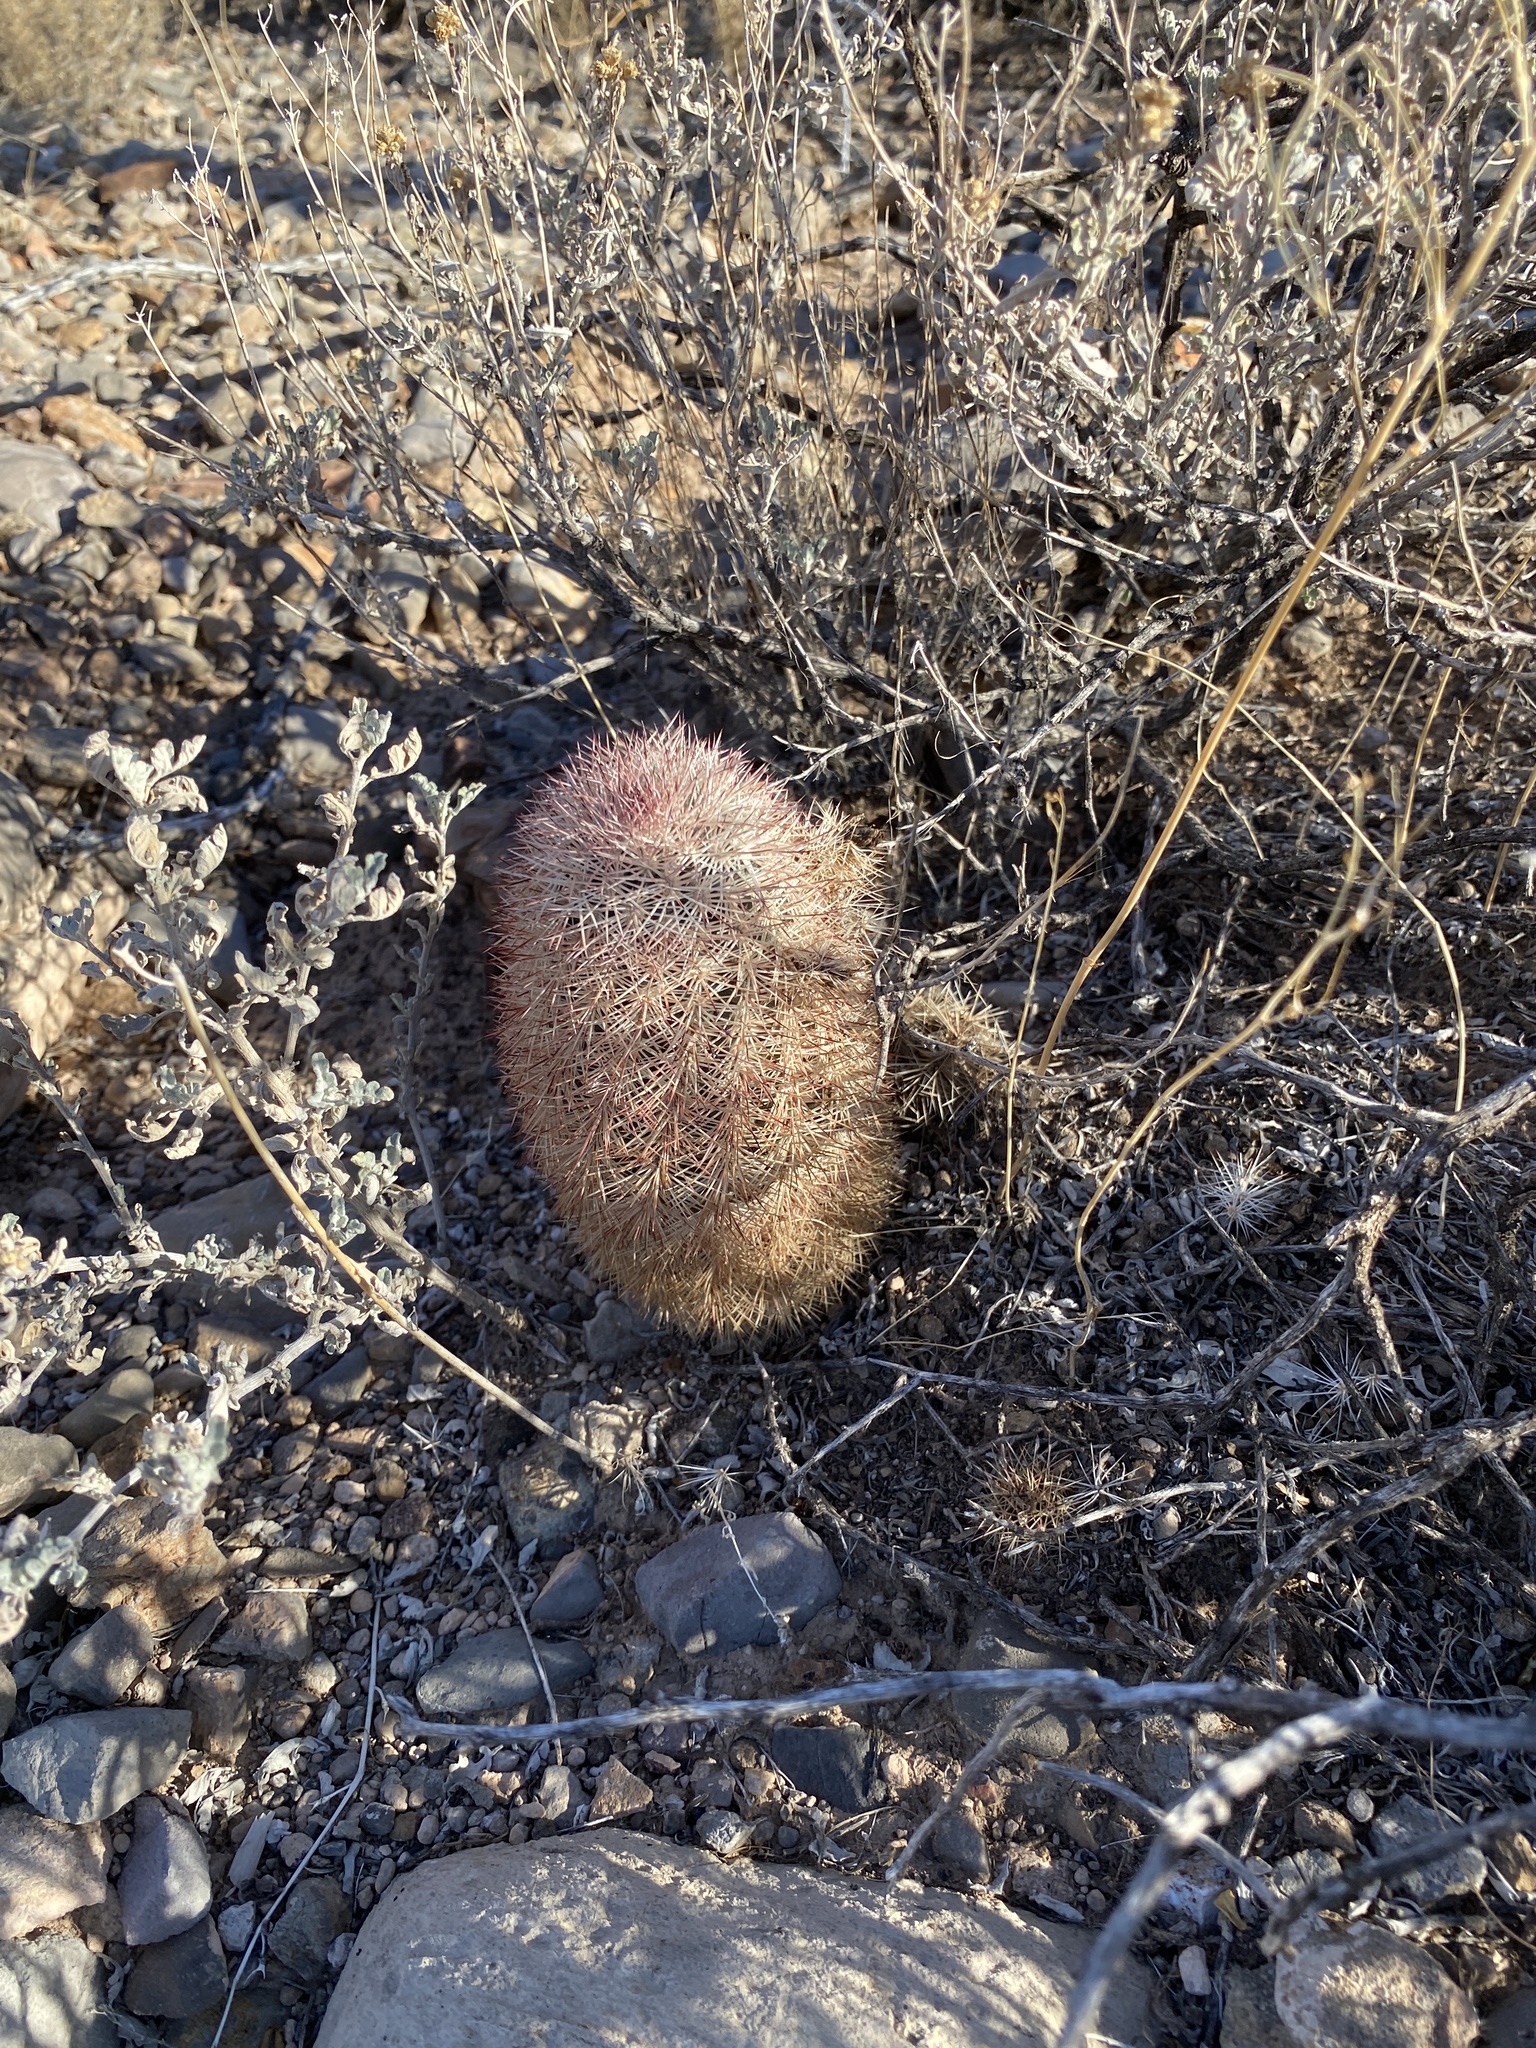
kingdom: Plantae
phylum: Tracheophyta
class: Magnoliopsida
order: Caryophyllales
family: Cactaceae
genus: Echinocereus
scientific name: Echinocereus dasyacanthus
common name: Spiny hedgehog cactus
